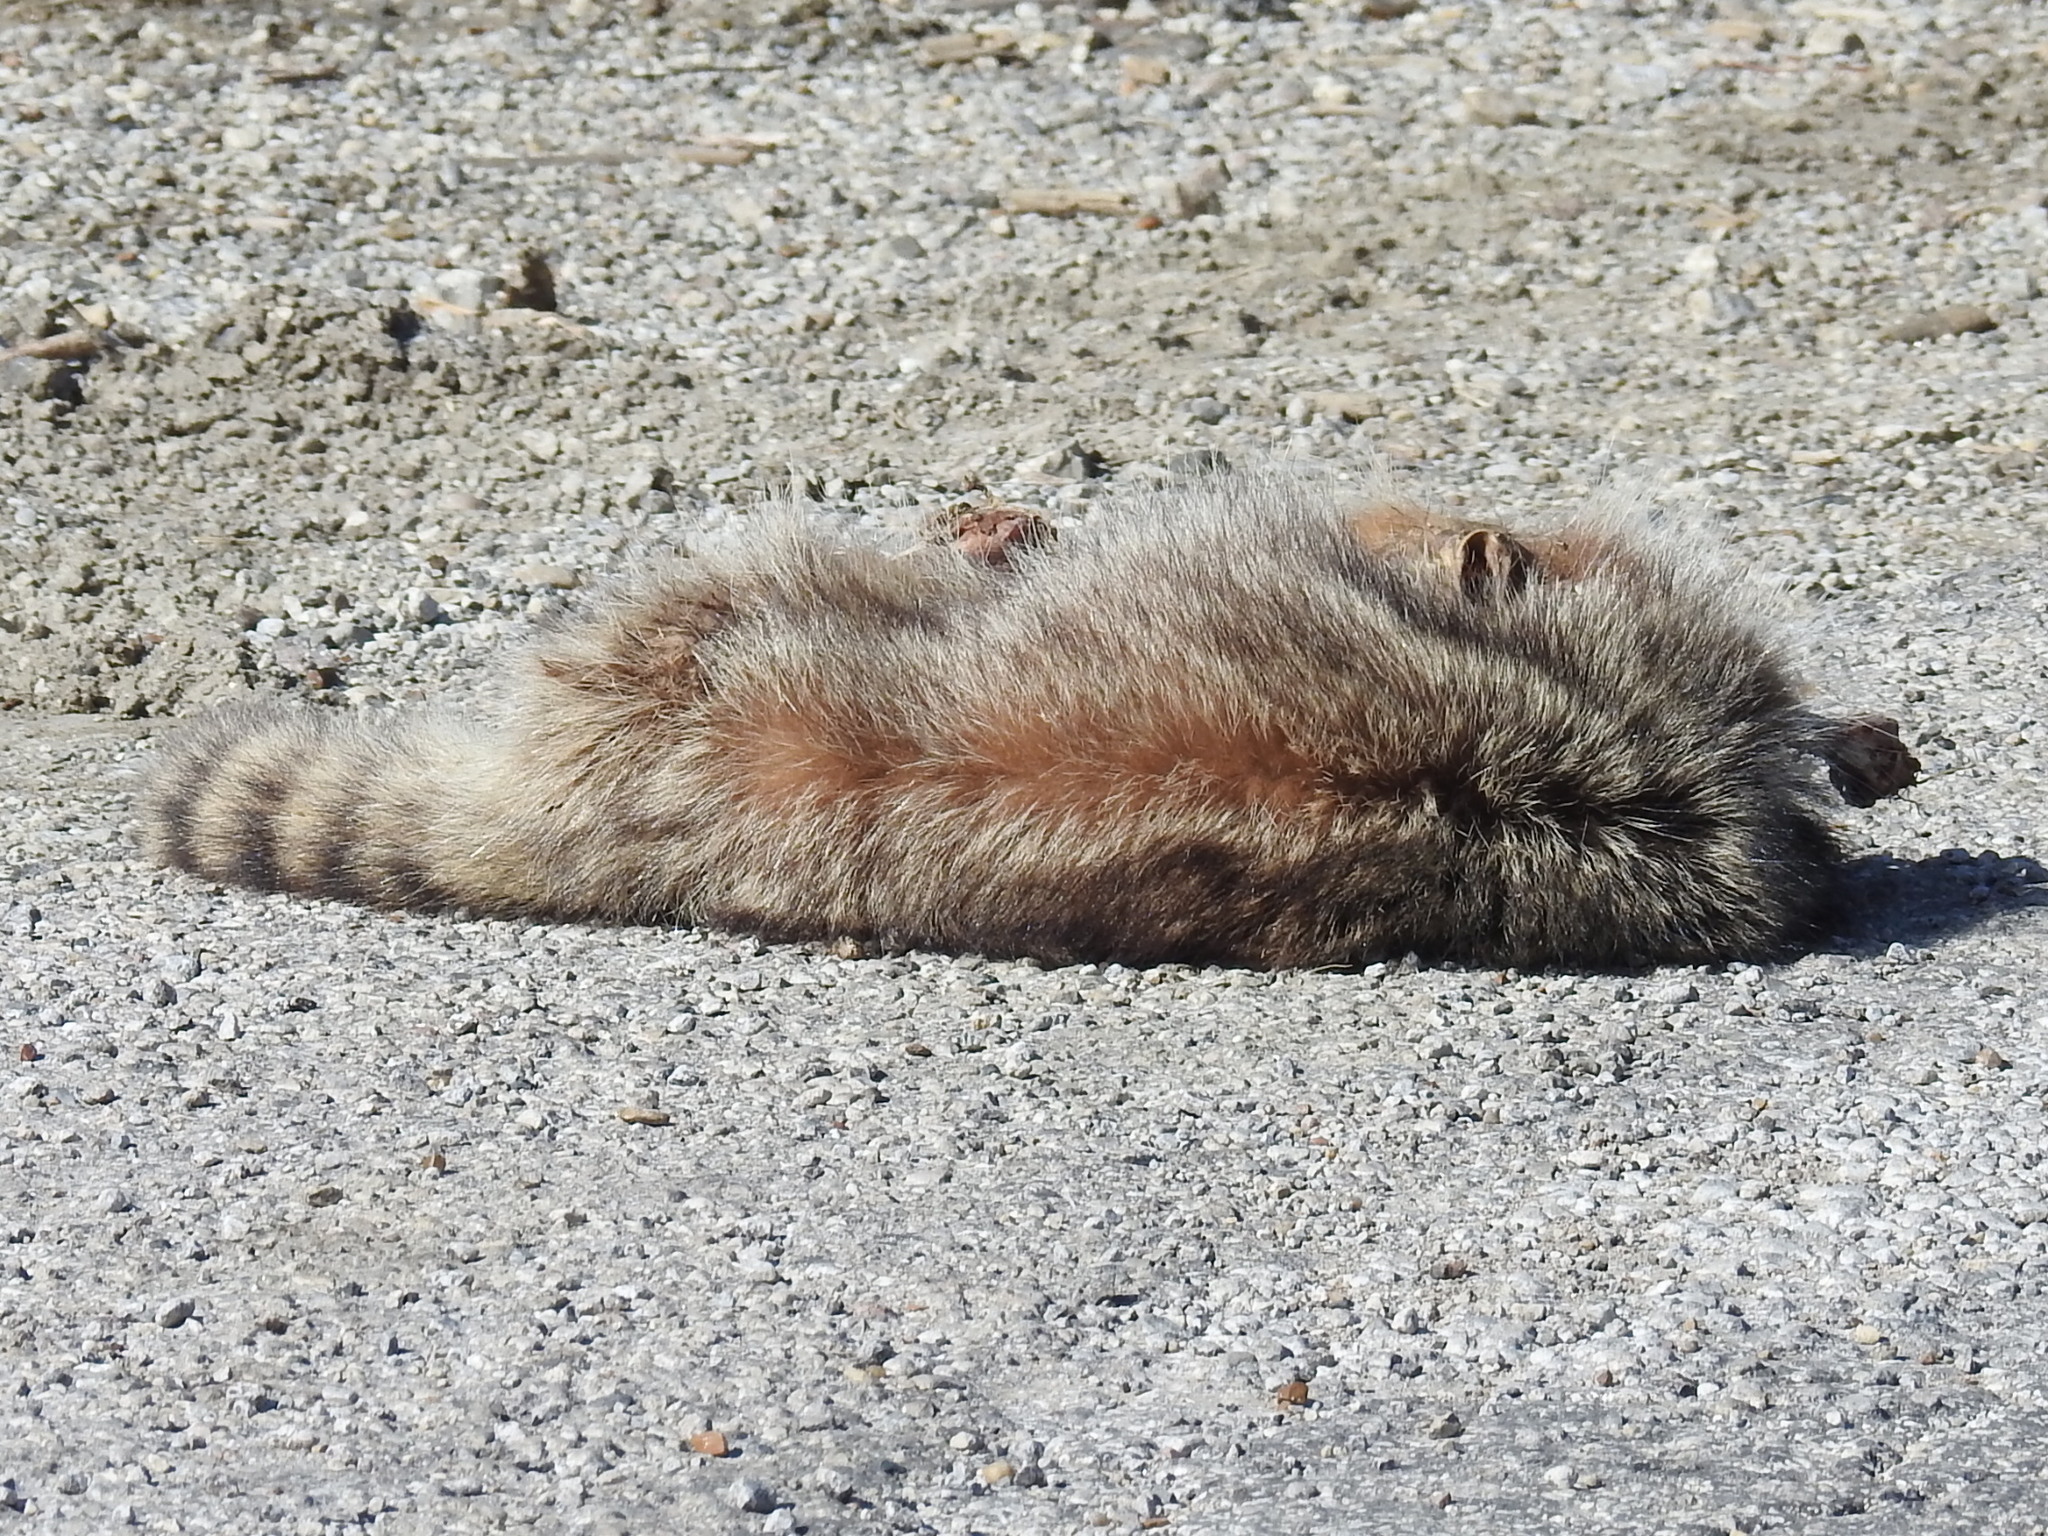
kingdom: Animalia
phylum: Chordata
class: Mammalia
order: Carnivora
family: Procyonidae
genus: Procyon
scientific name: Procyon lotor
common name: Raccoon
